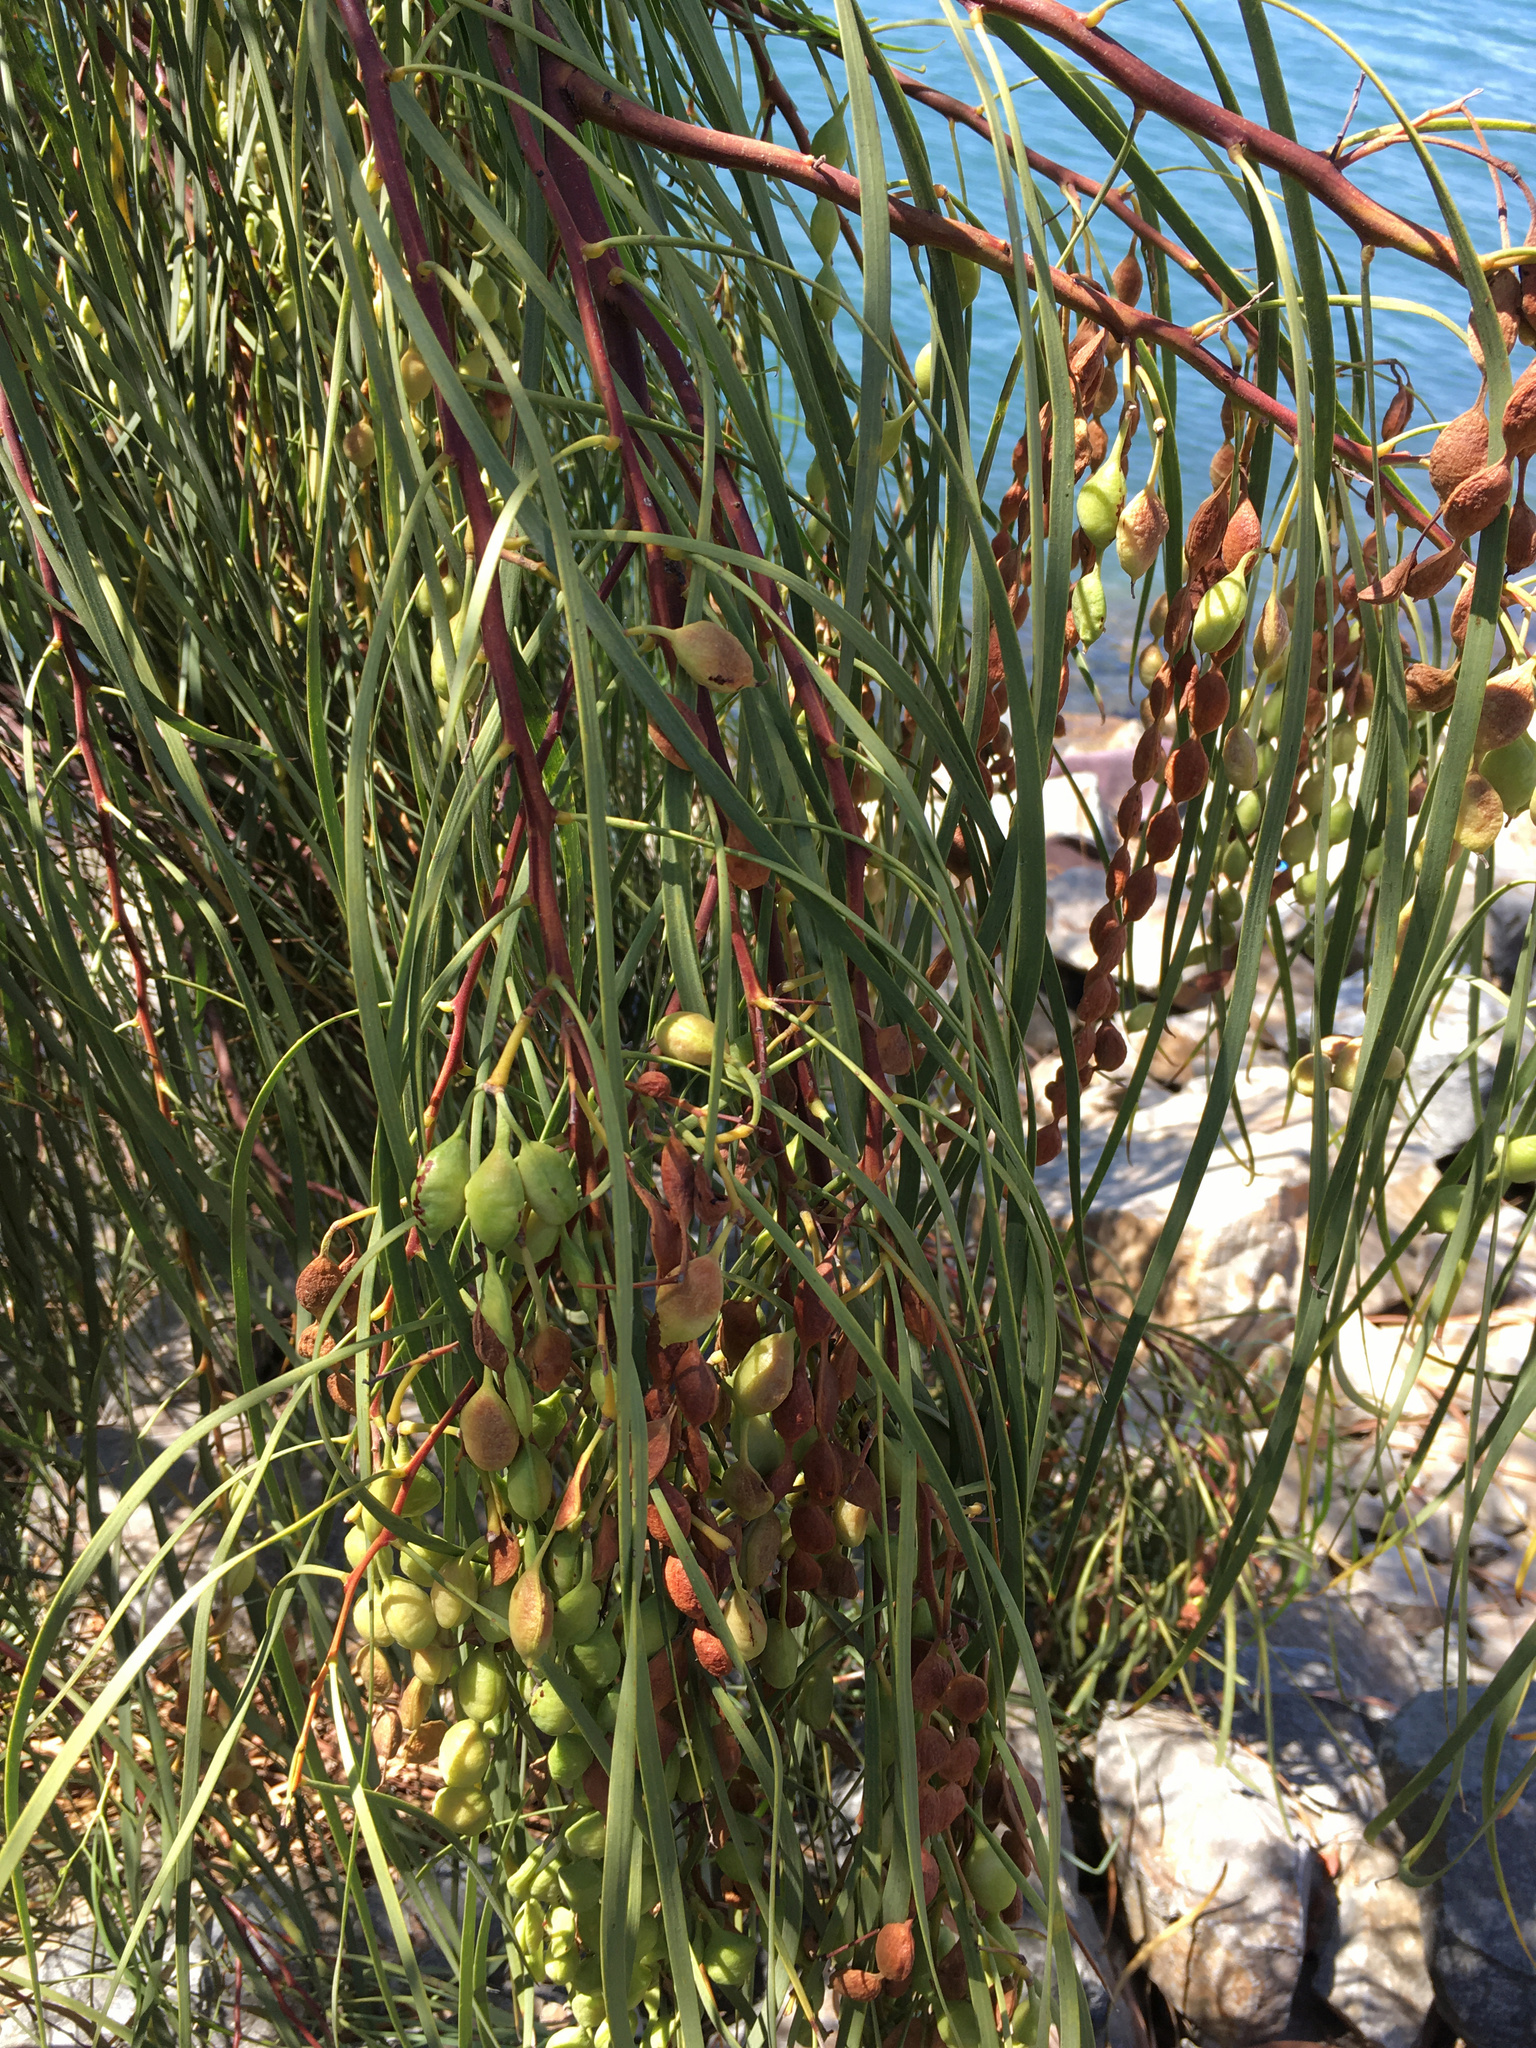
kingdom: Plantae
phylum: Tracheophyta
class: Magnoliopsida
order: Fabales
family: Fabaceae
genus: Acacia
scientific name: Acacia stenophylla
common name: River cooba
